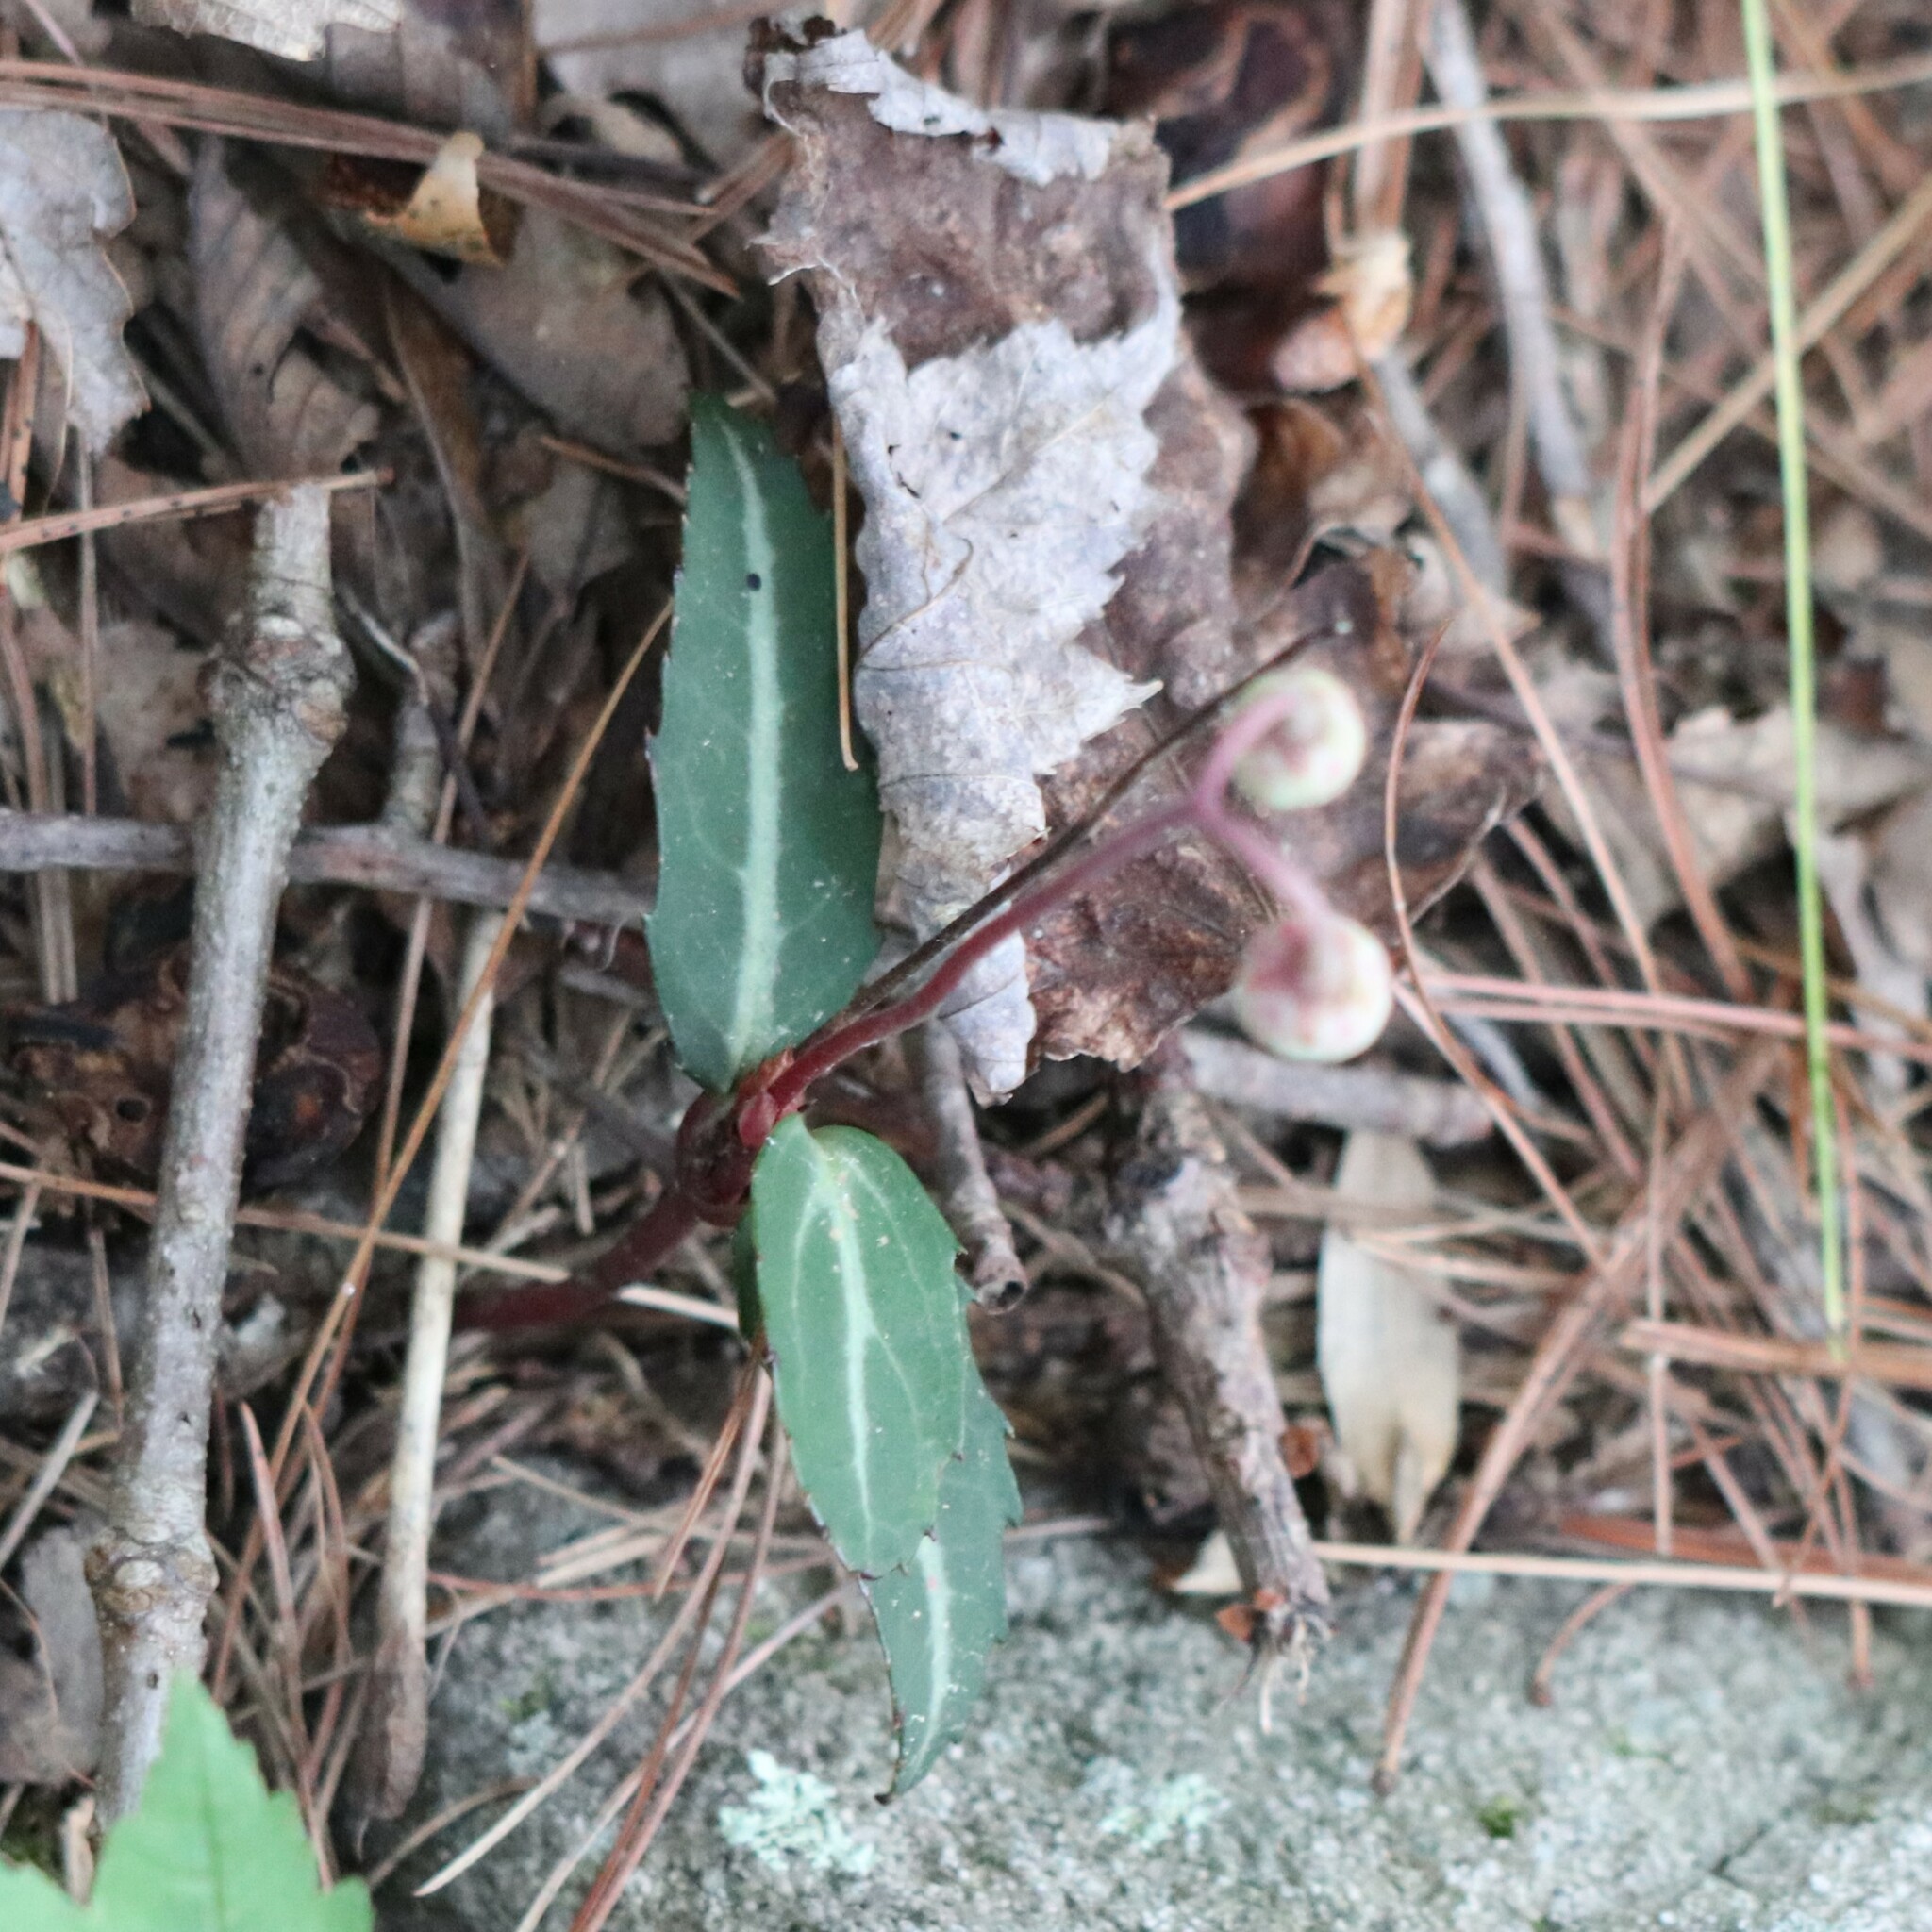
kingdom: Plantae
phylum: Tracheophyta
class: Magnoliopsida
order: Ericales
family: Ericaceae
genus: Chimaphila
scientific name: Chimaphila maculata
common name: Spotted pipsissewa
